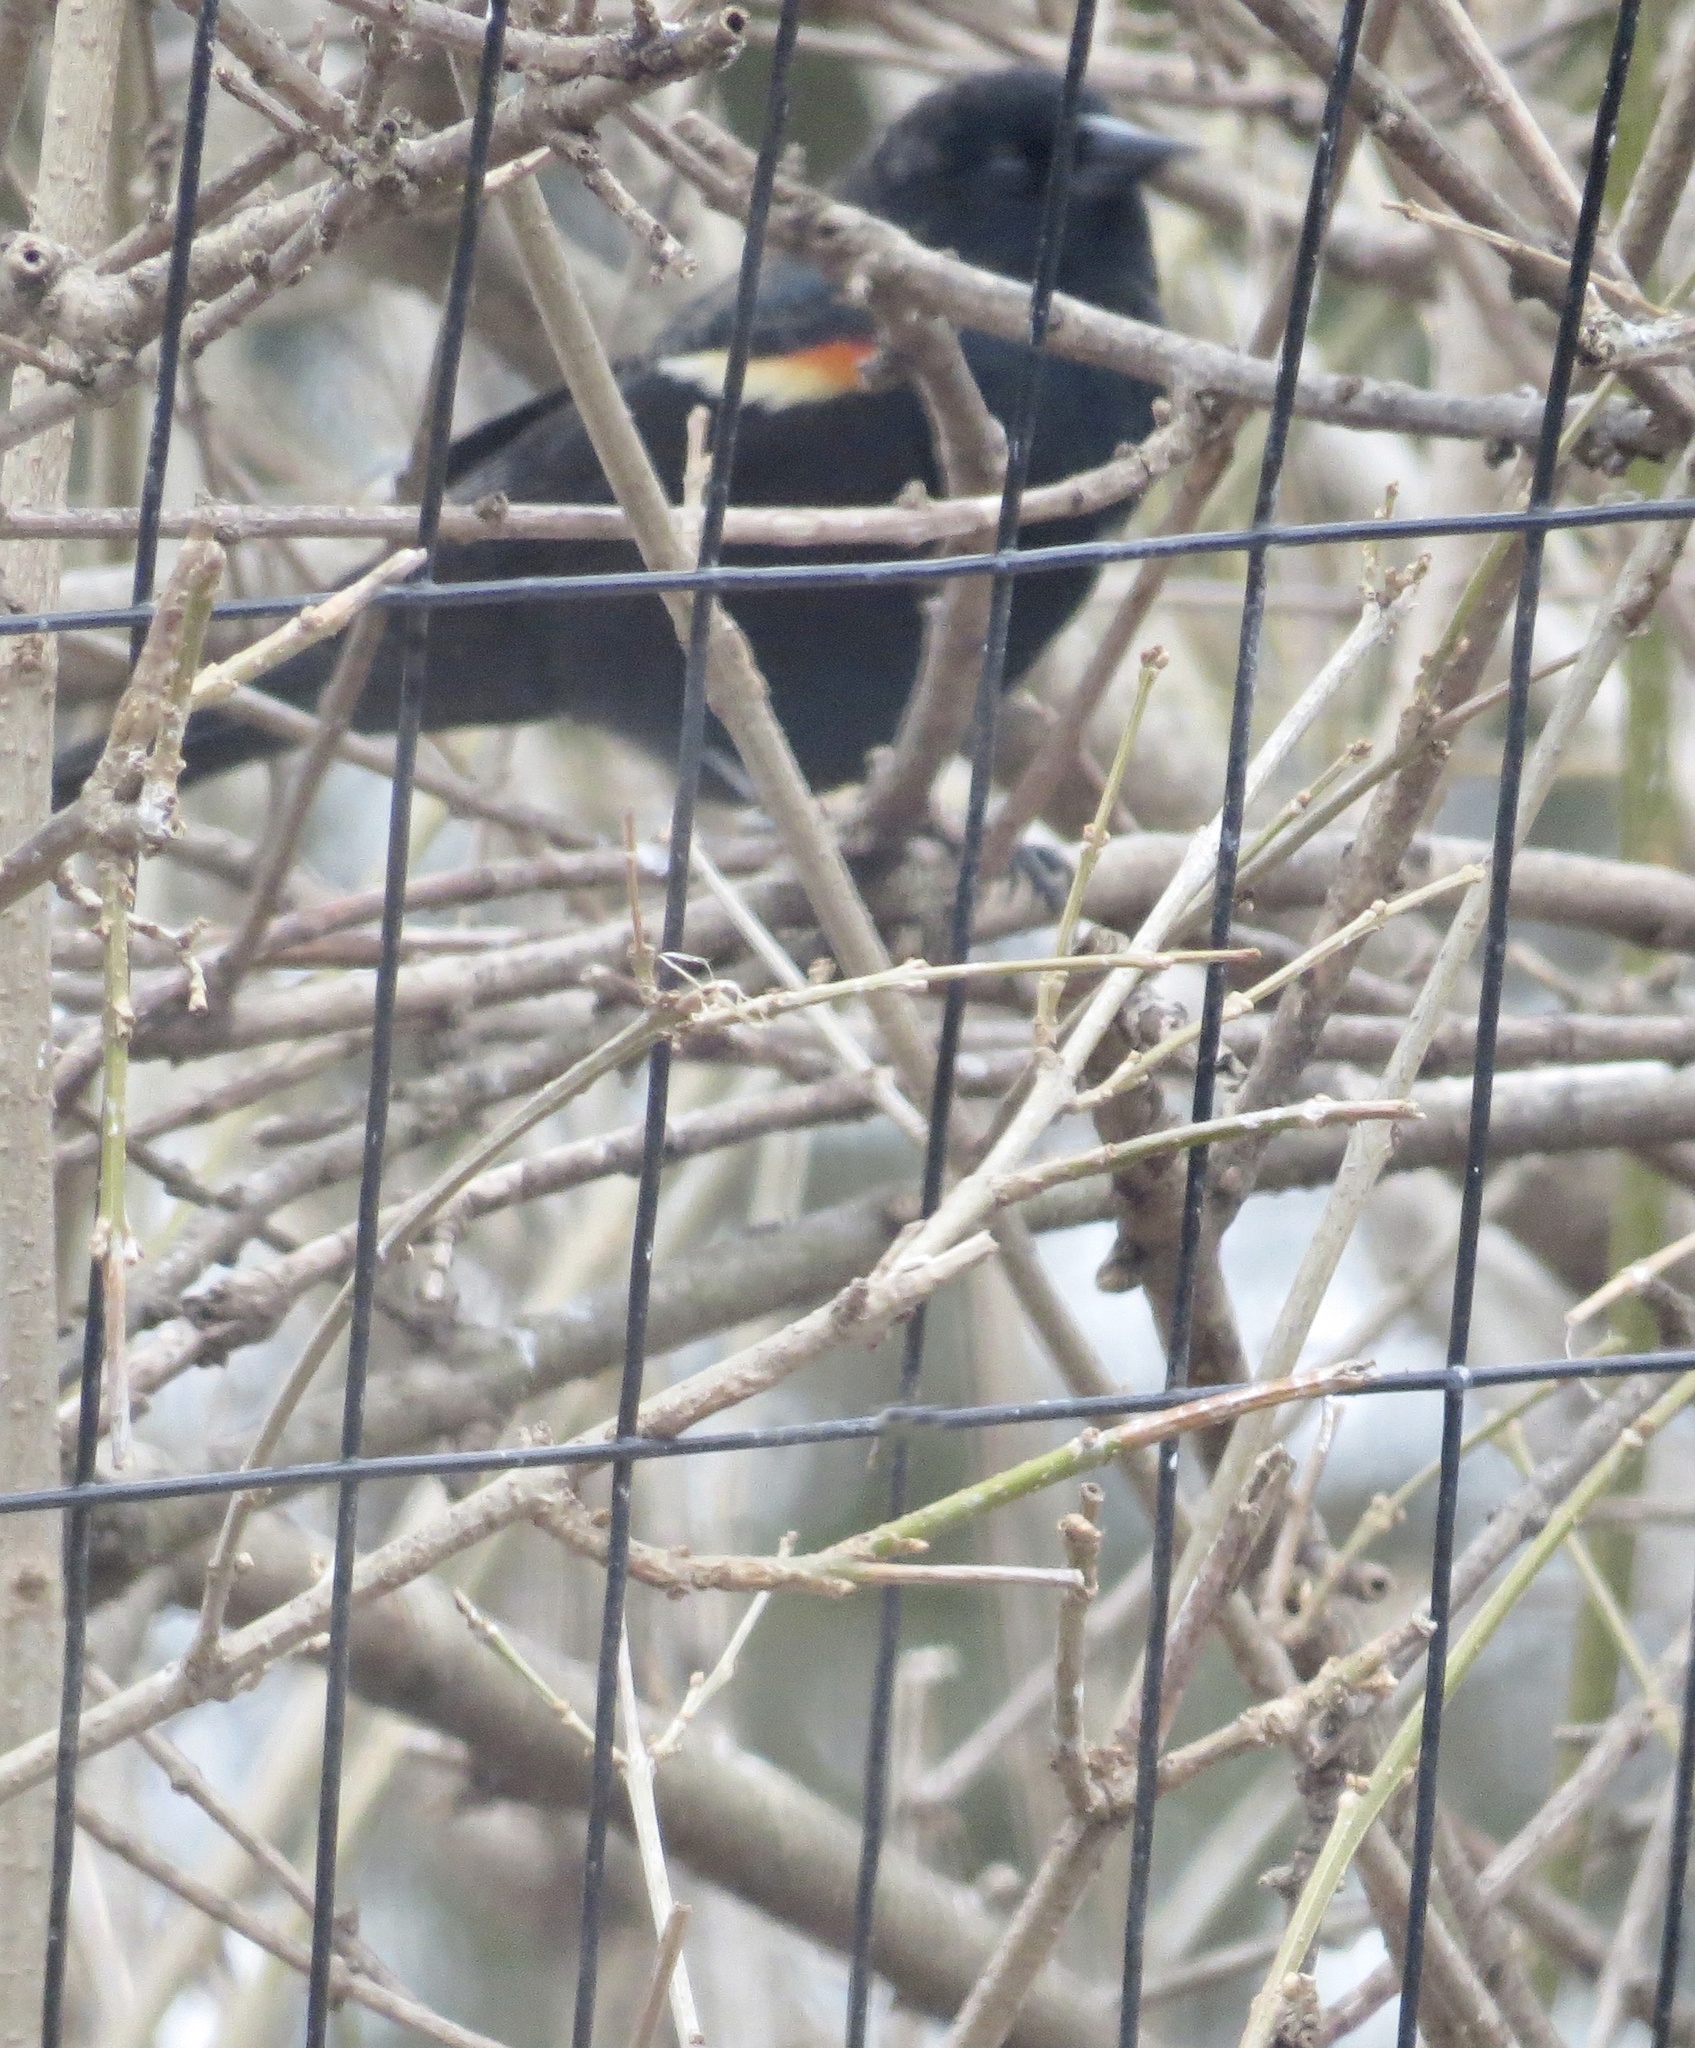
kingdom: Animalia
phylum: Chordata
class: Aves
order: Passeriformes
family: Icteridae
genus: Agelaius
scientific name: Agelaius phoeniceus
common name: Red-winged blackbird
